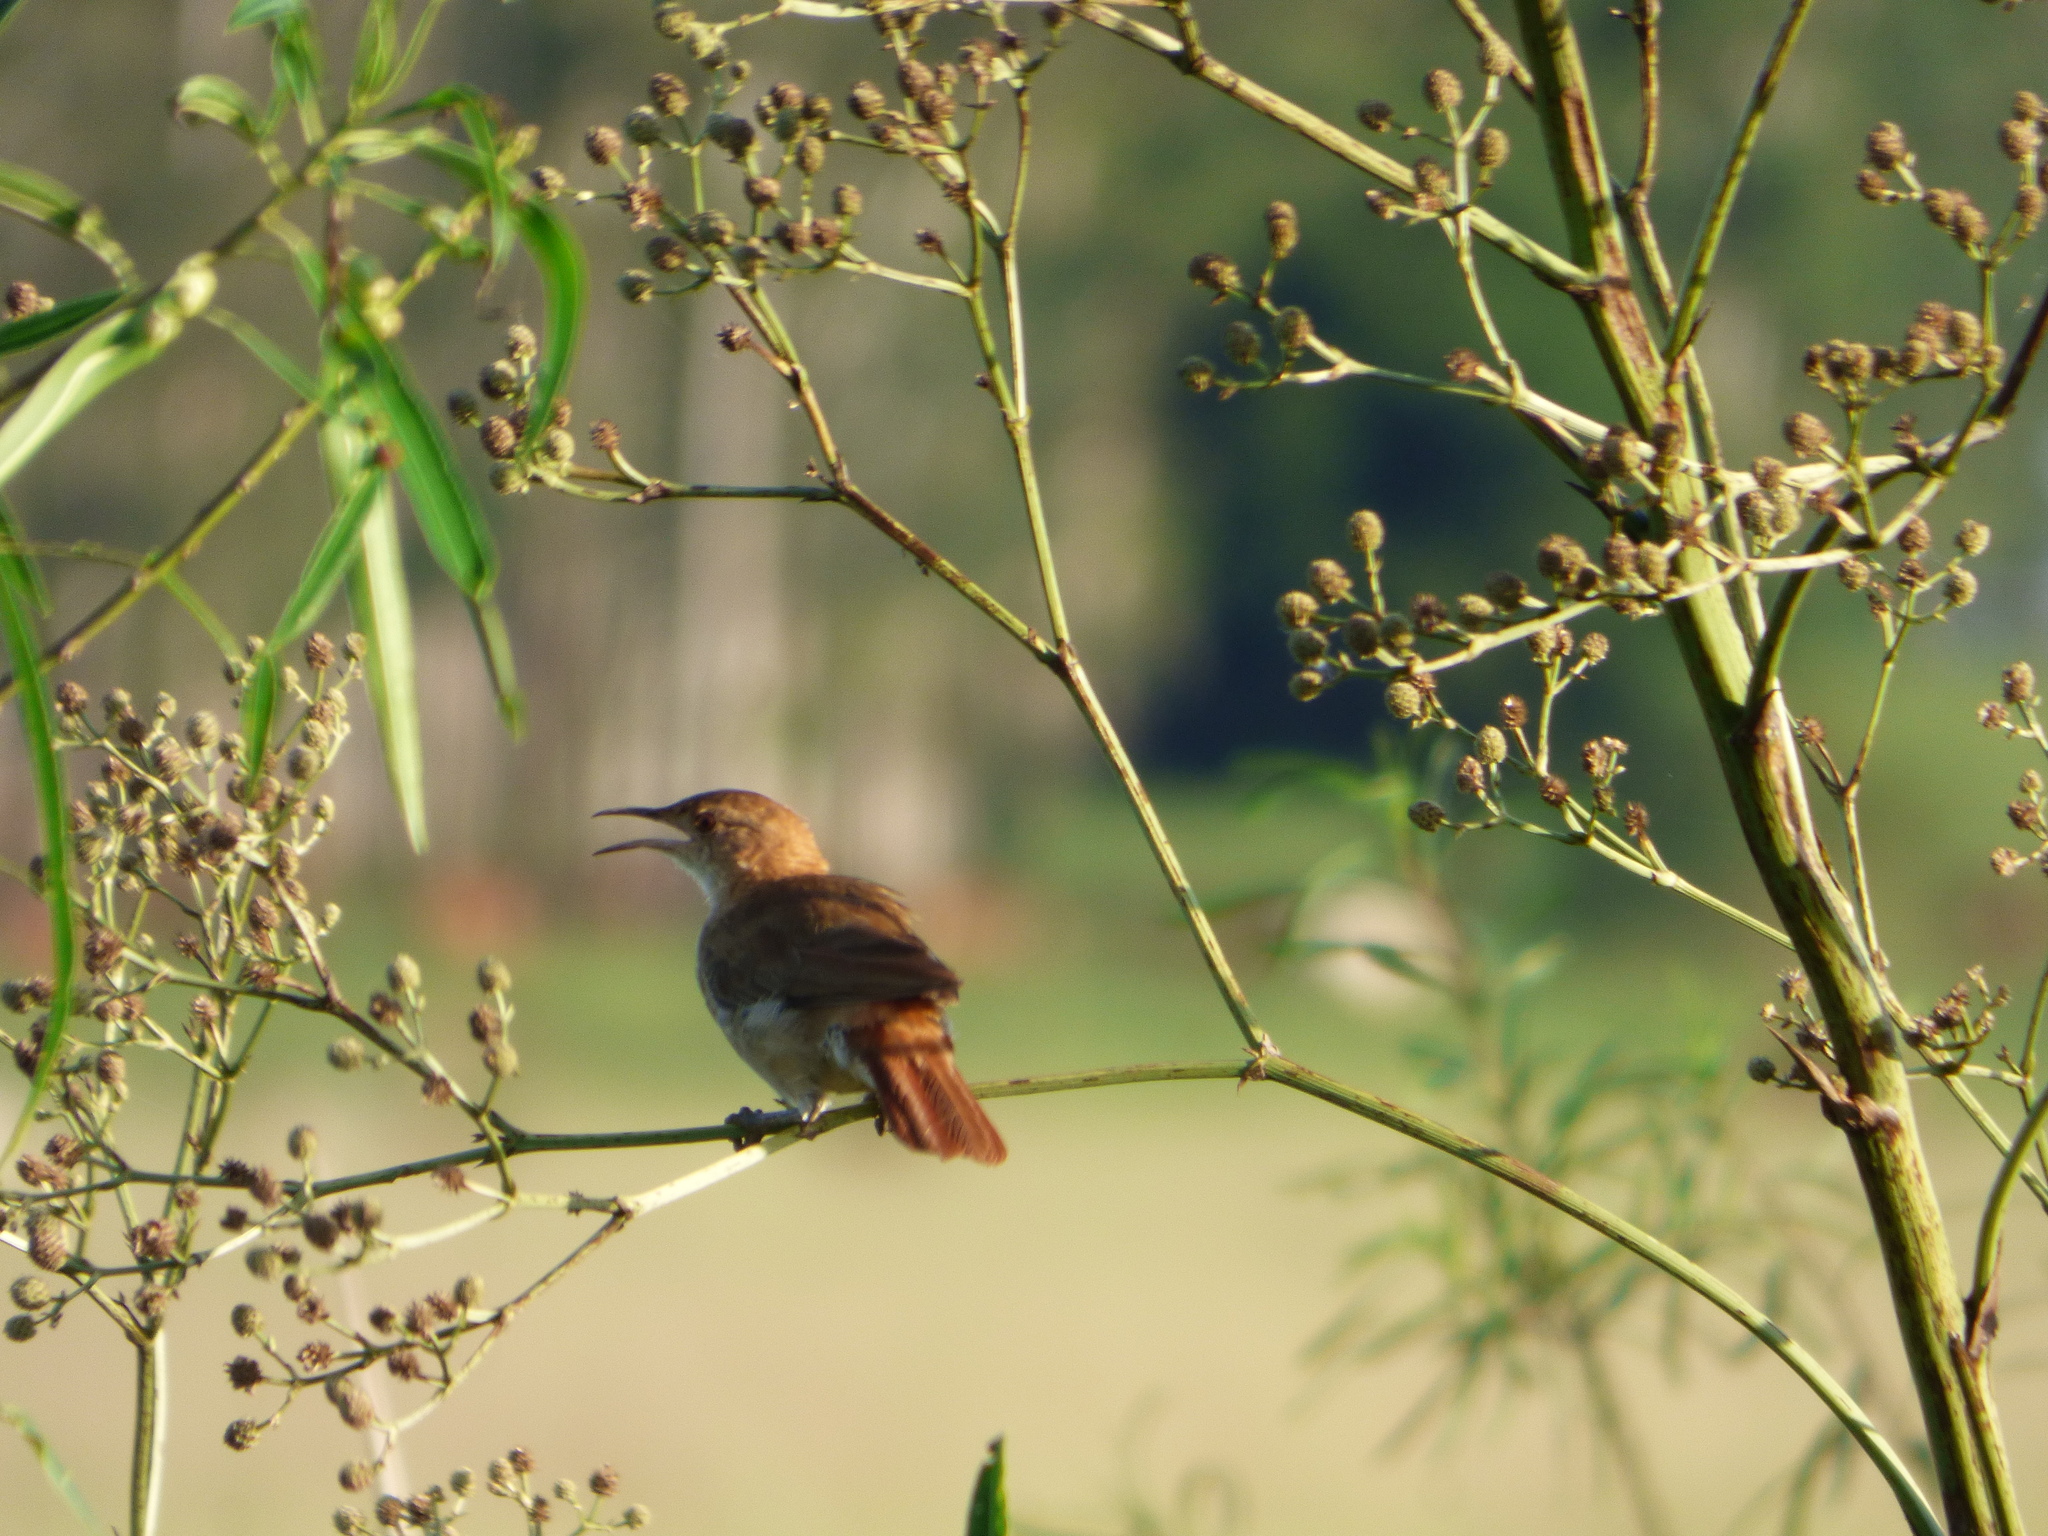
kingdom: Animalia
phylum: Chordata
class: Aves
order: Passeriformes
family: Furnariidae
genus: Furnarius
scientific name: Furnarius rufus
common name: Rufous hornero
